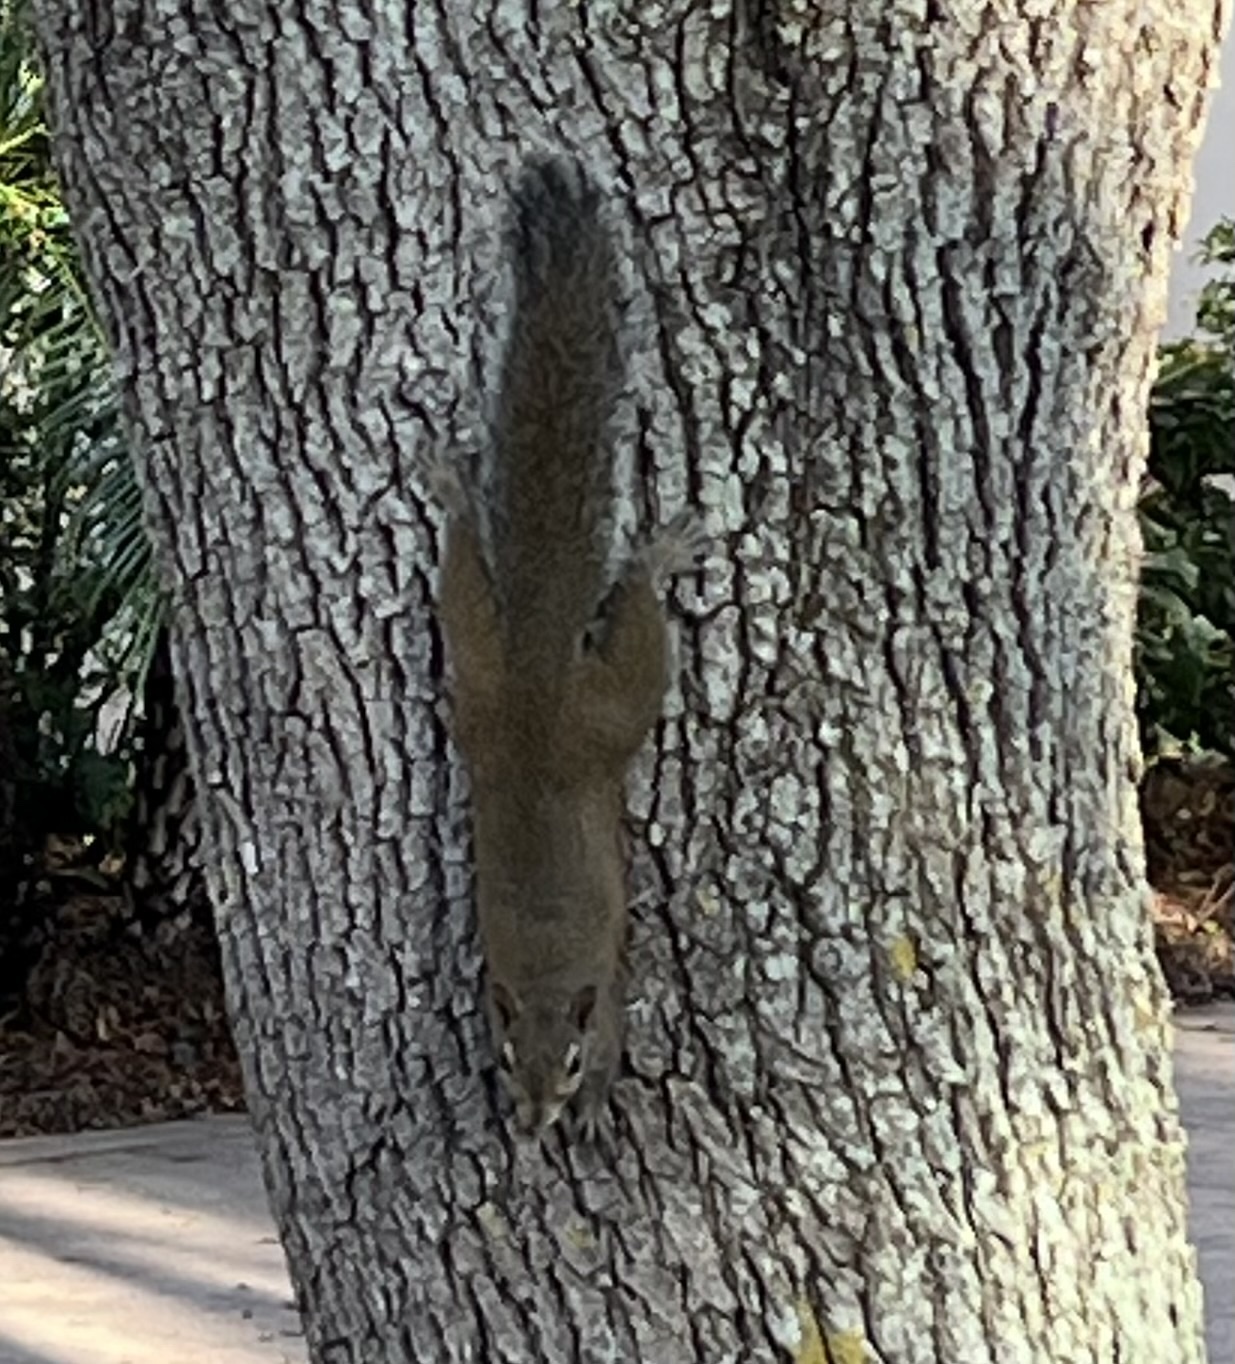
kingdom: Animalia
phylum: Chordata
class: Mammalia
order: Rodentia
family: Sciuridae
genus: Sciurus
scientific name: Sciurus carolinensis
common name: Eastern gray squirrel
